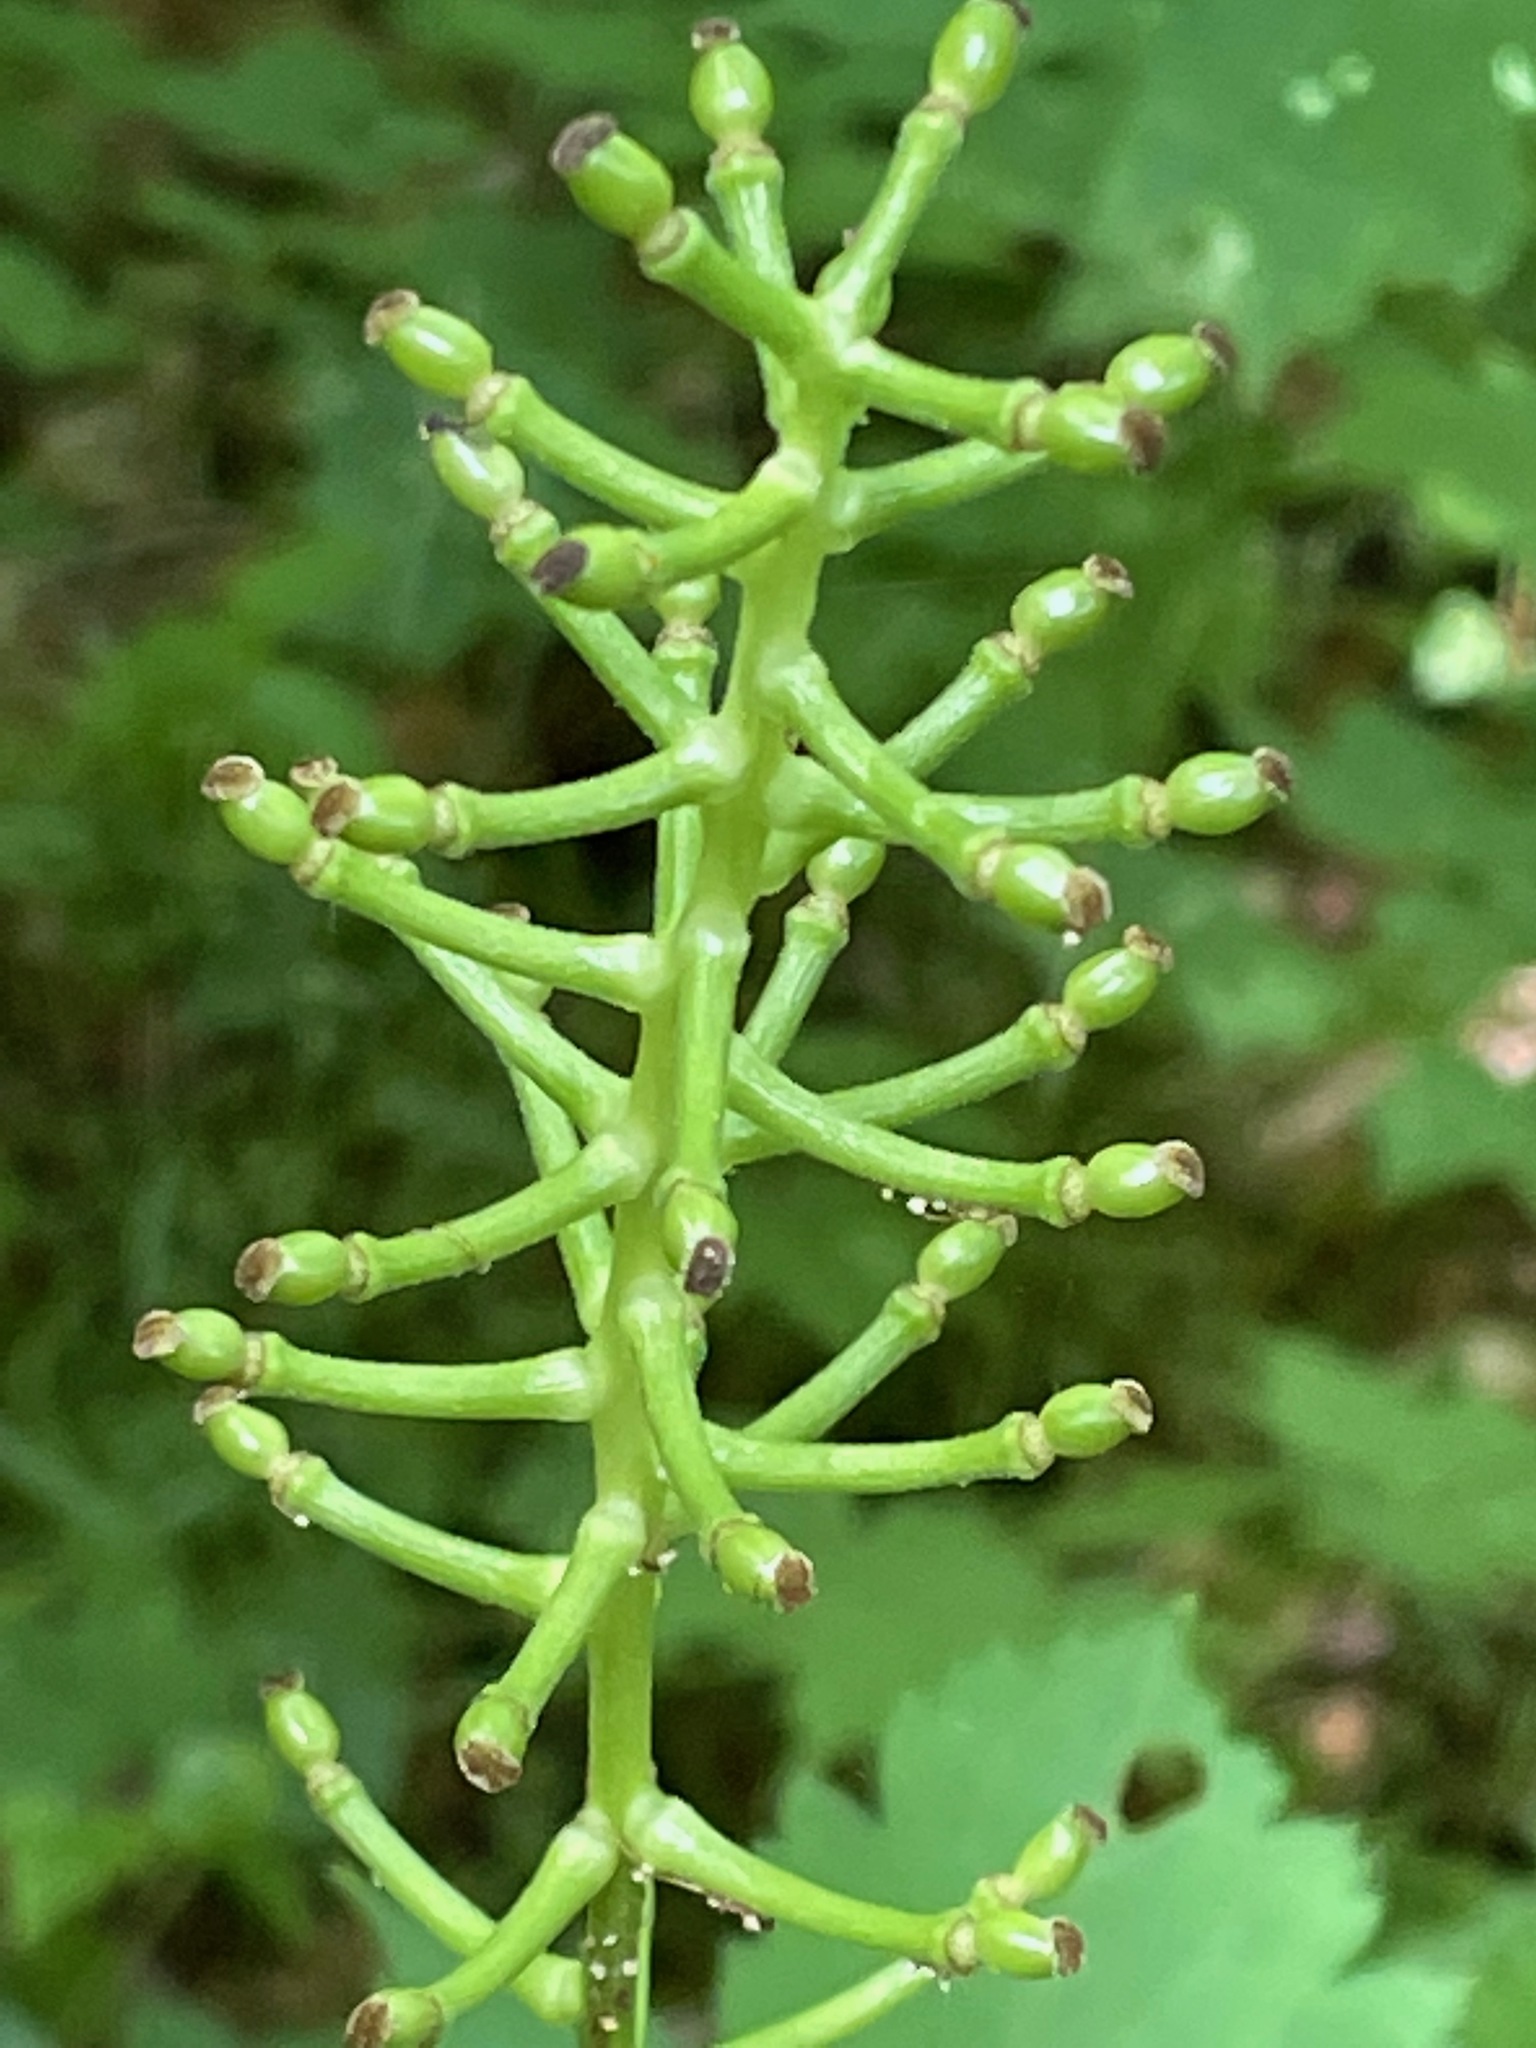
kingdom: Plantae
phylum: Tracheophyta
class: Magnoliopsida
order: Ranunculales
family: Ranunculaceae
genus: Actaea
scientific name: Actaea pachypoda
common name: Doll's-eyes
